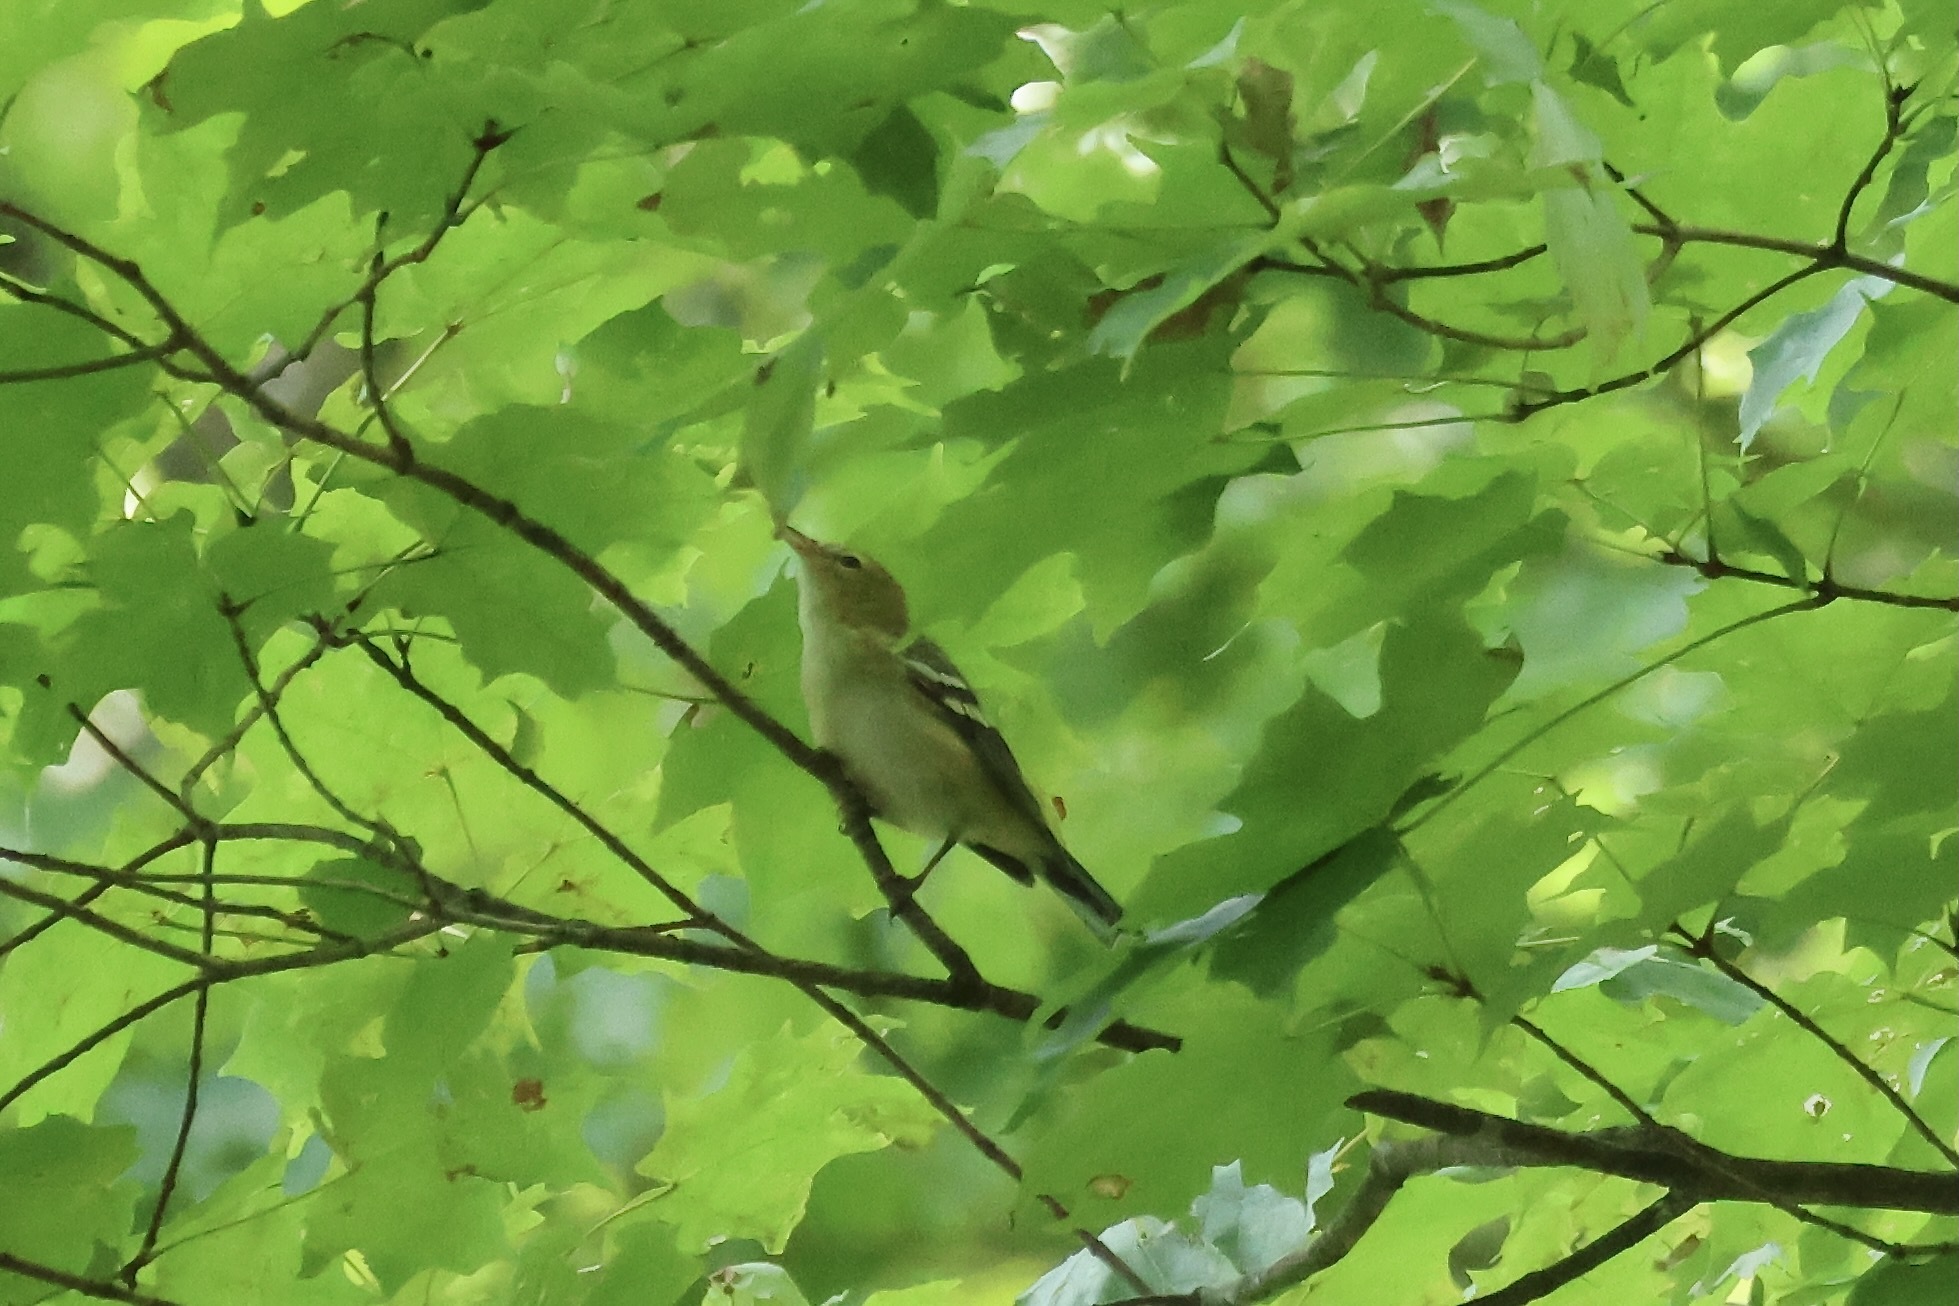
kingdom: Animalia
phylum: Chordata
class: Aves
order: Passeriformes
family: Parulidae
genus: Setophaga
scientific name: Setophaga castanea
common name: Bay-breasted warbler
